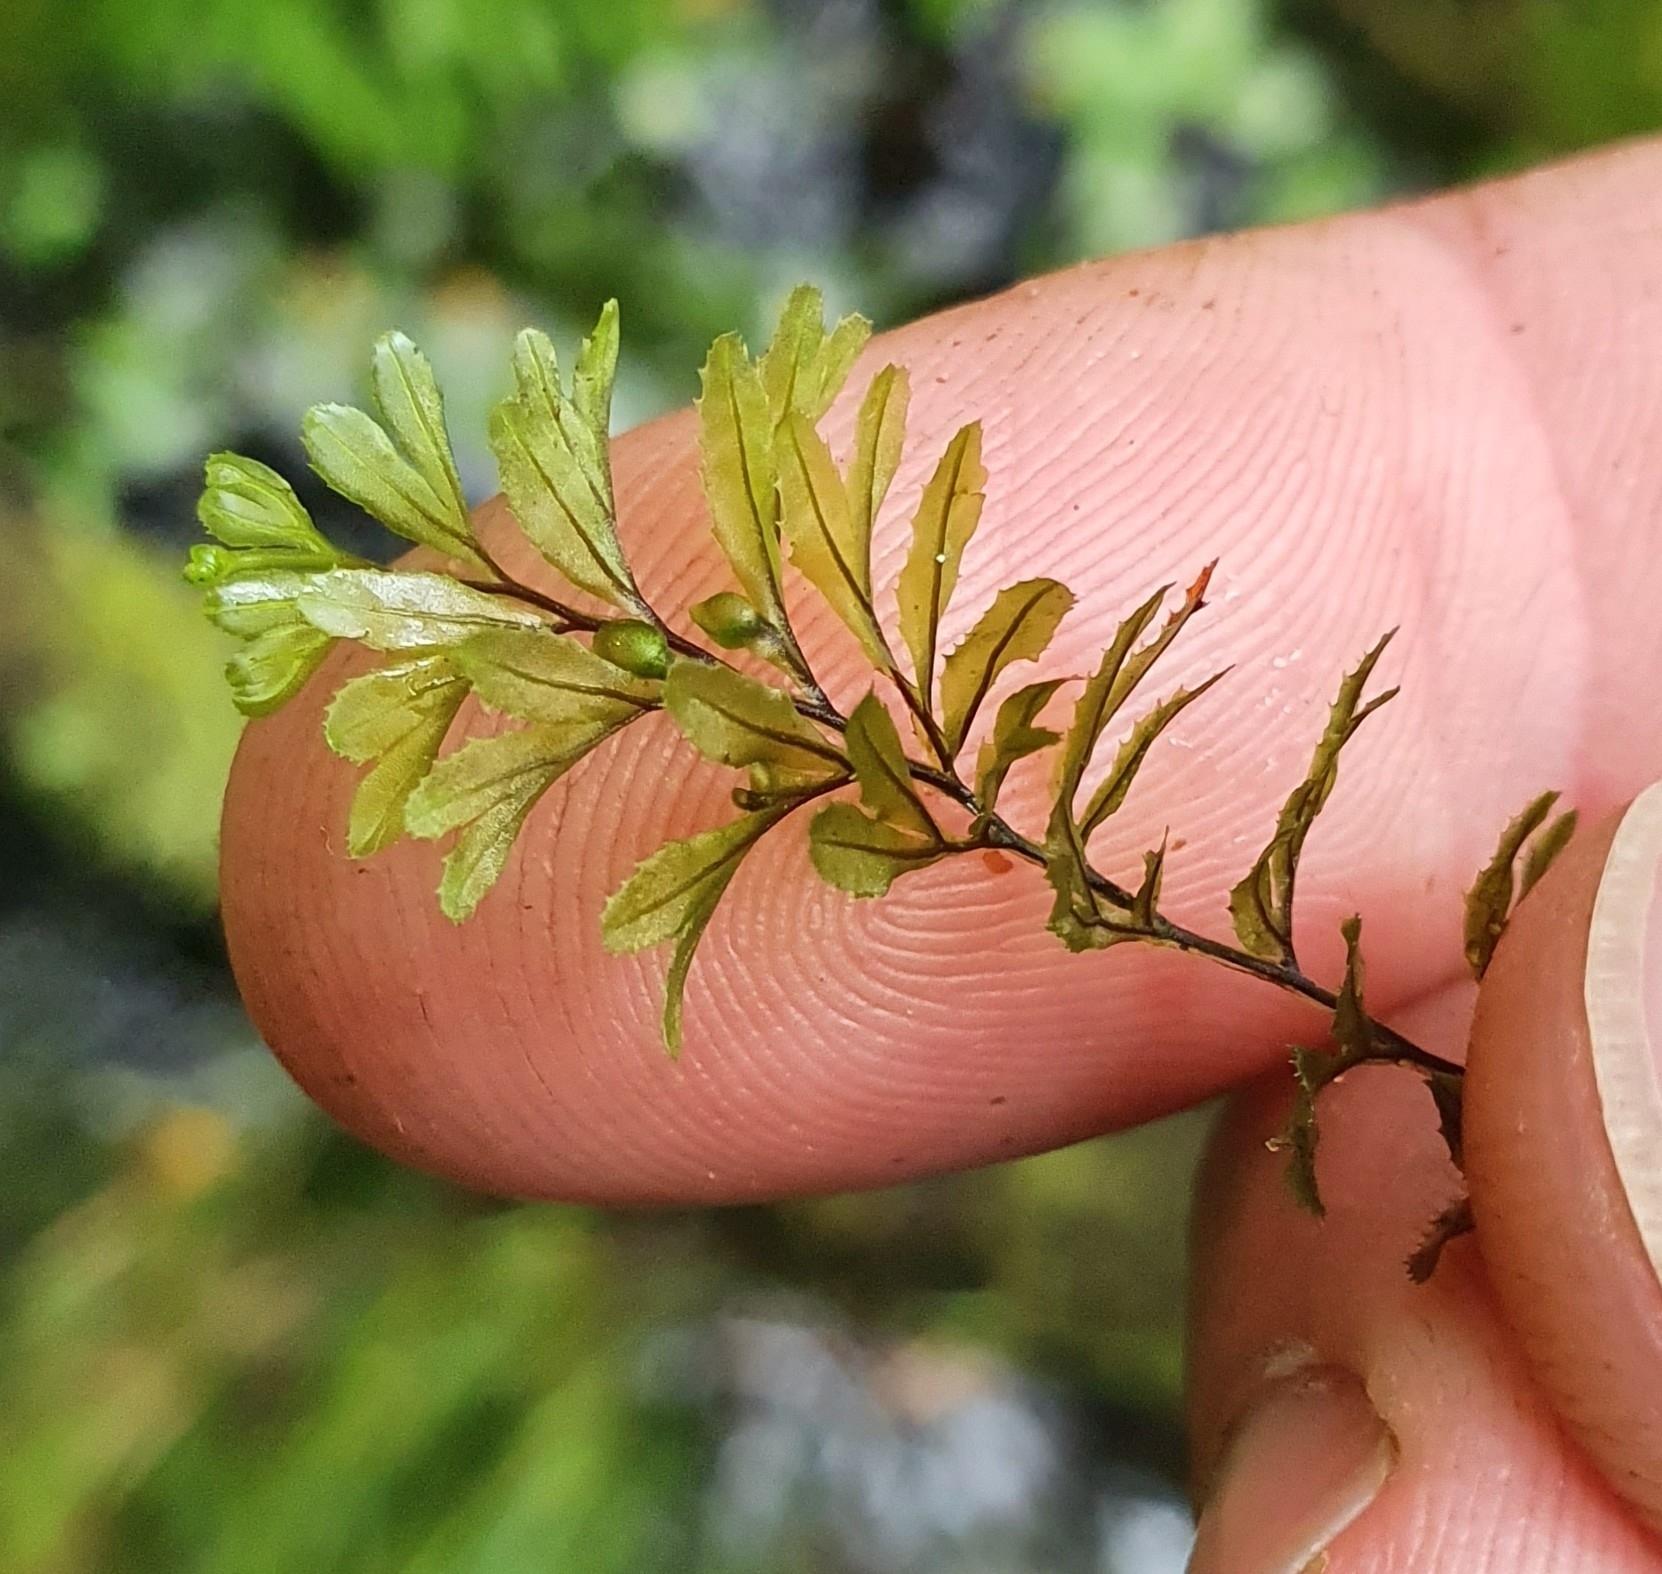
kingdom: Plantae
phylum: Tracheophyta
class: Polypodiopsida
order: Hymenophyllales
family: Hymenophyllaceae
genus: Hymenophyllum
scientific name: Hymenophyllum wilsonii
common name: Wilson's filmy fern
